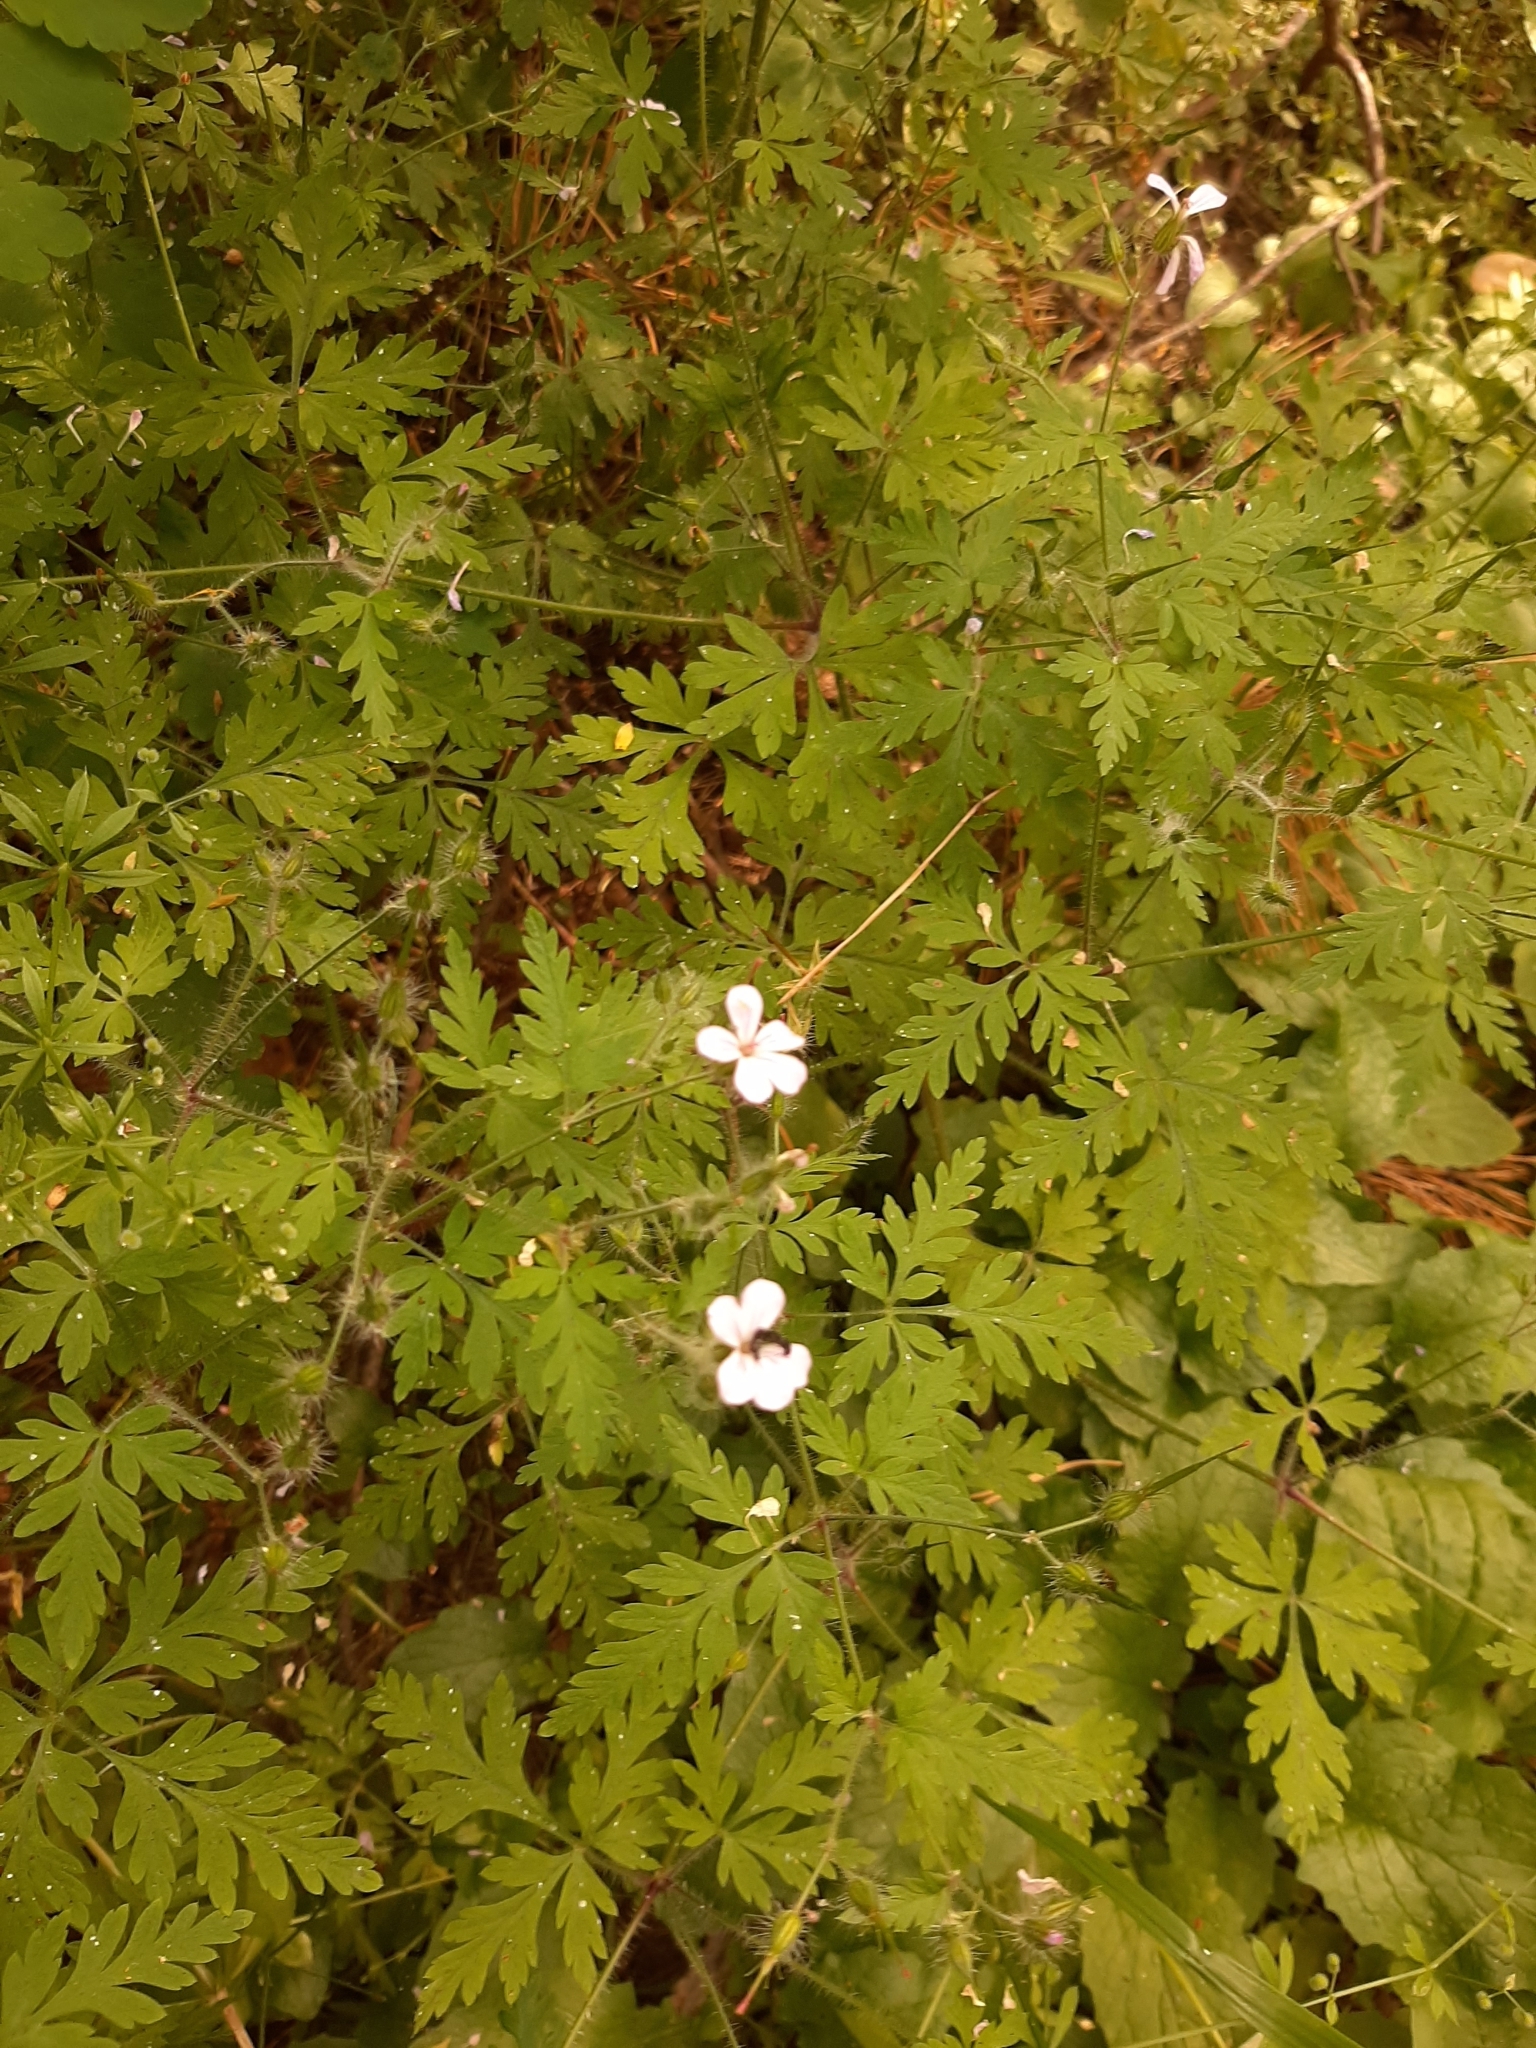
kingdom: Plantae
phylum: Tracheophyta
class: Magnoliopsida
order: Geraniales
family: Geraniaceae
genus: Geranium
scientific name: Geranium robertianum
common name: Herb-robert
